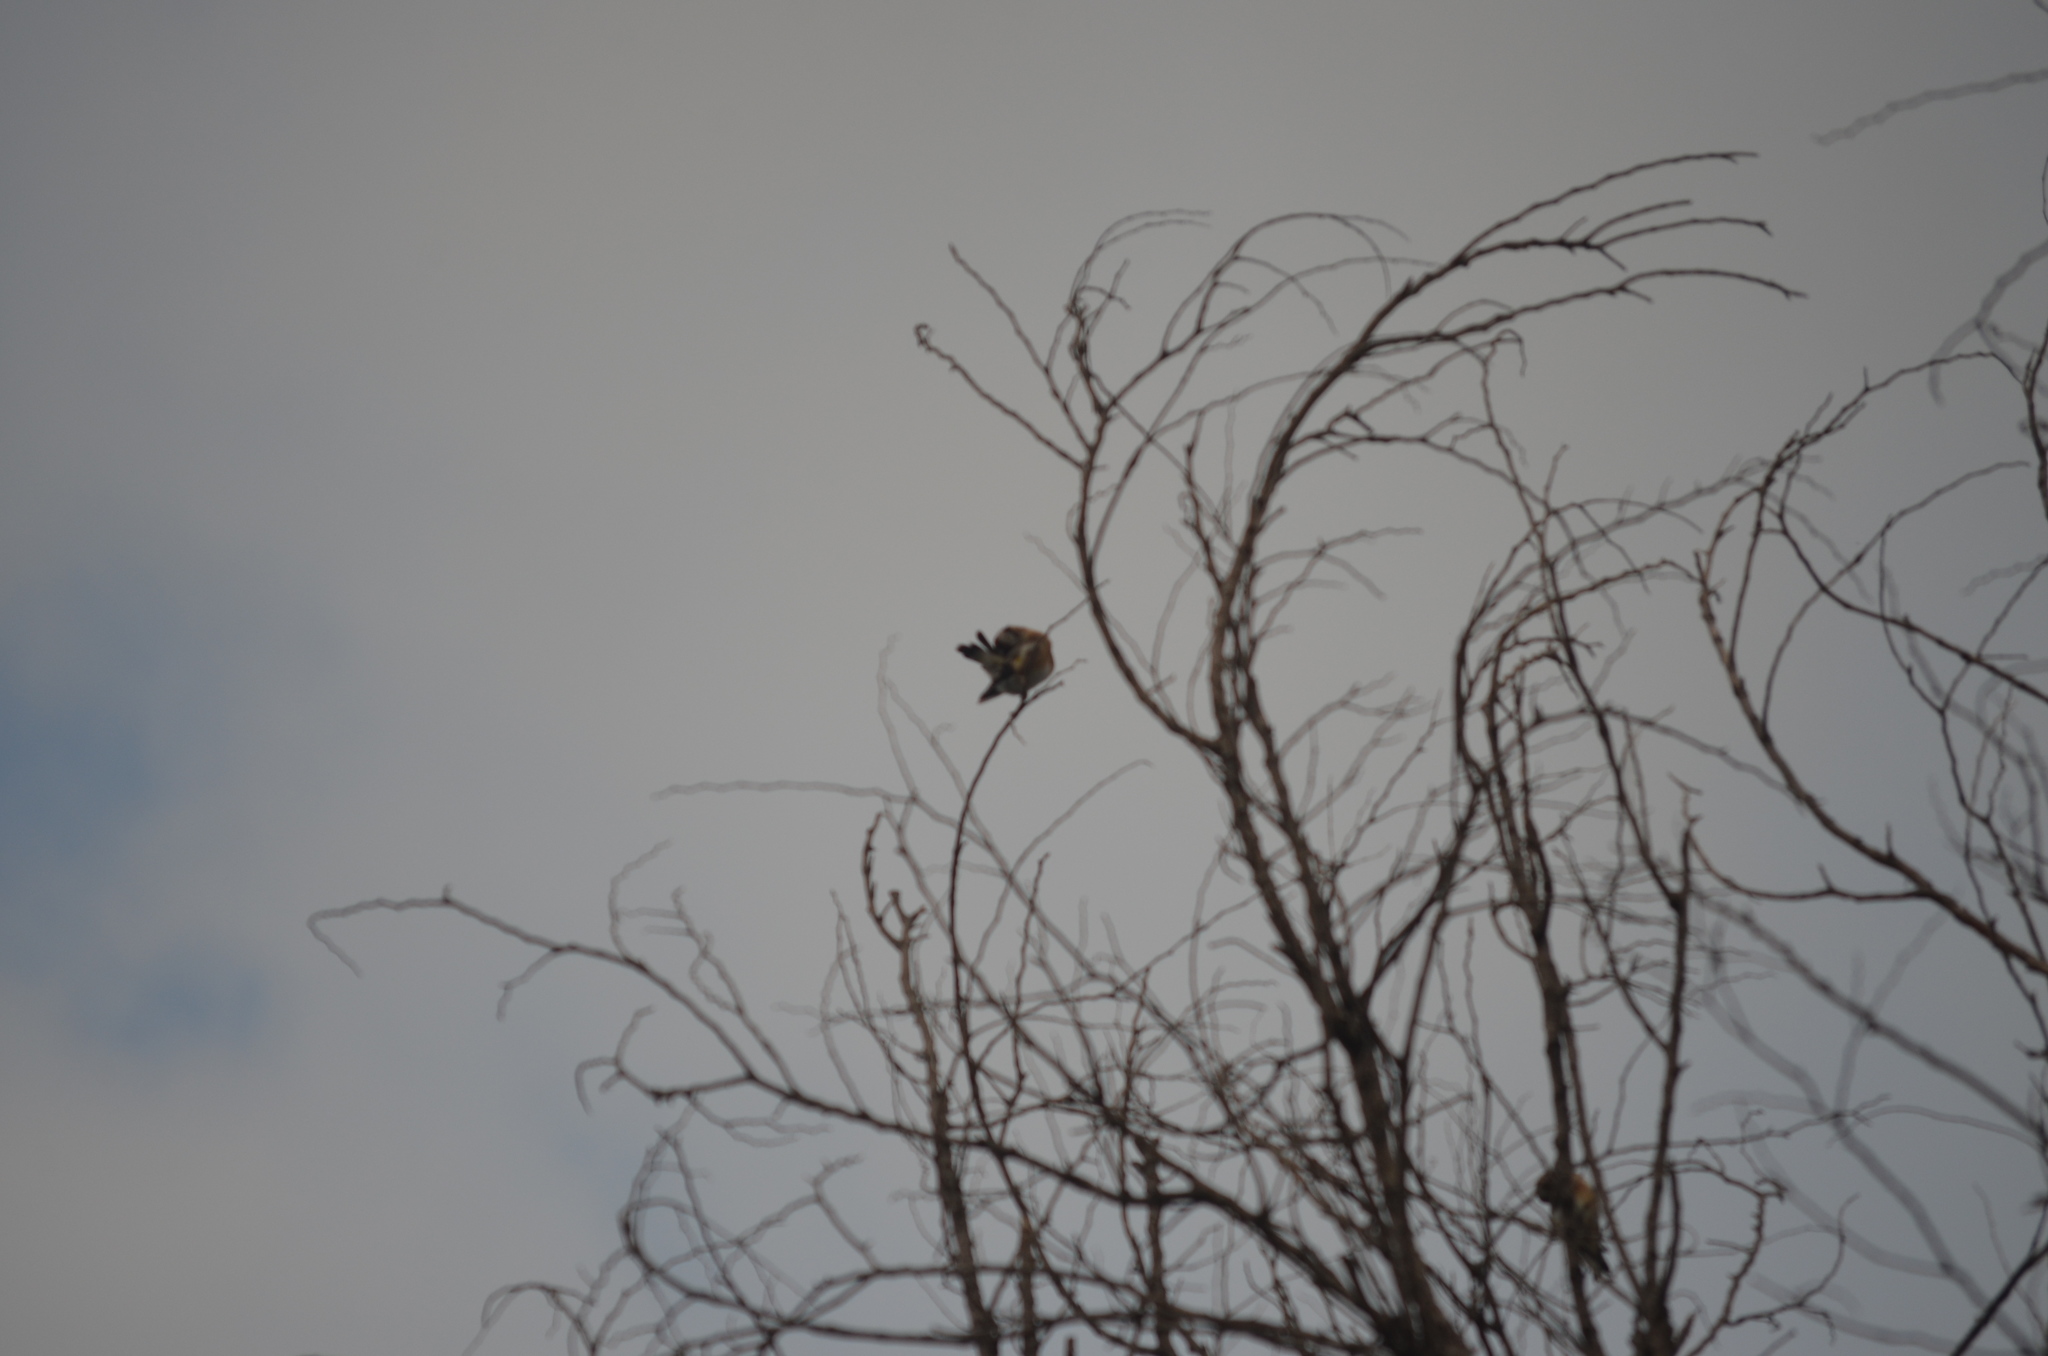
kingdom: Animalia
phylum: Chordata
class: Aves
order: Passeriformes
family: Fringillidae
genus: Carduelis
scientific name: Carduelis carduelis
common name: European goldfinch
